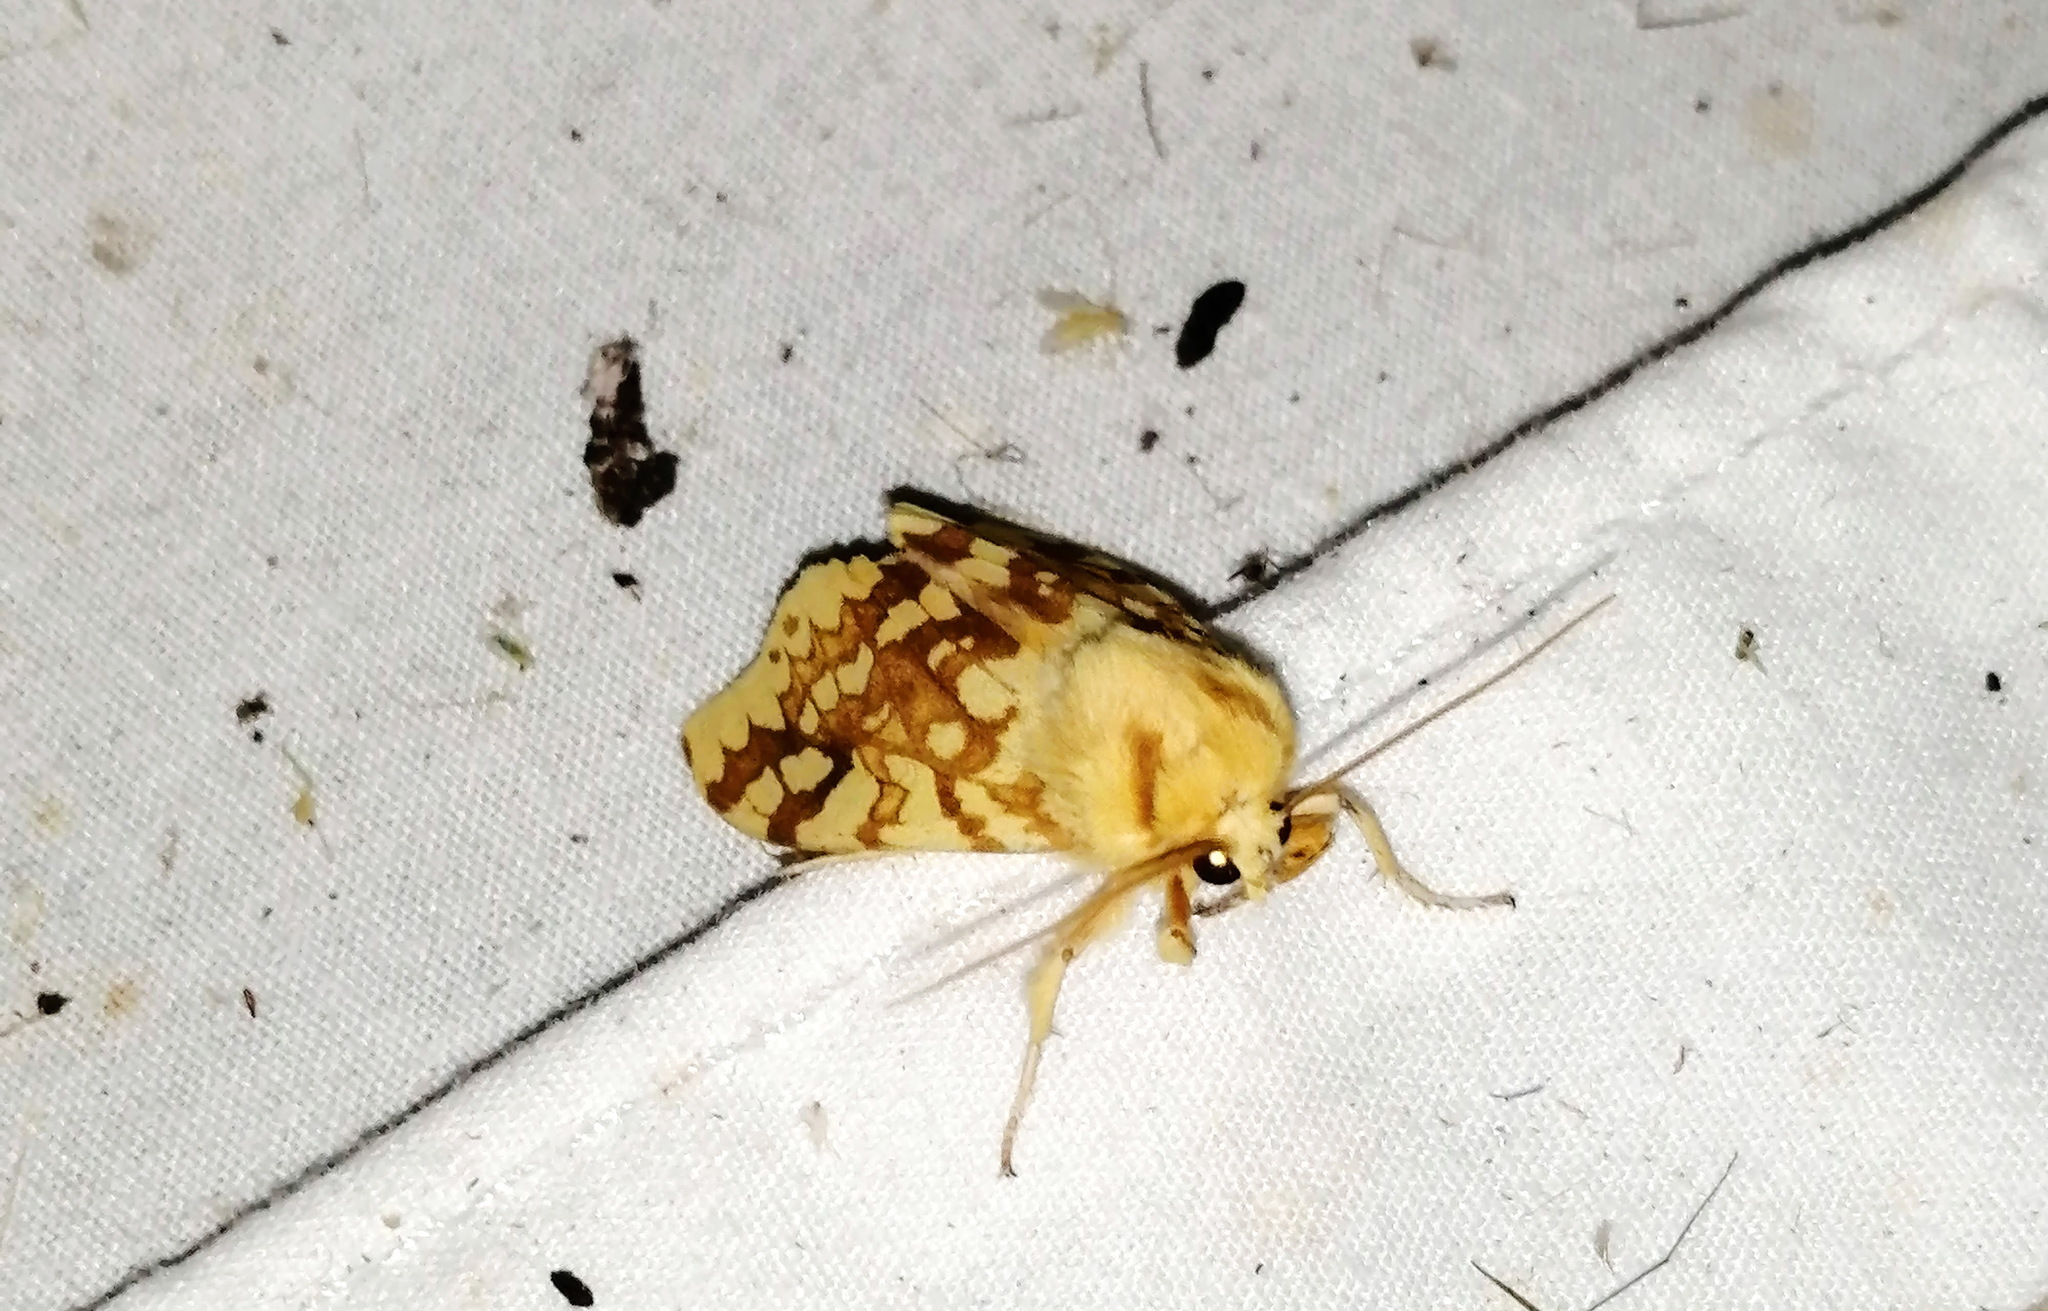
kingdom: Animalia
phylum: Arthropoda
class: Insecta
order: Lepidoptera
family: Erebidae
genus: Lophocampa
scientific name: Lophocampa maculata
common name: Spotted tussock moth
